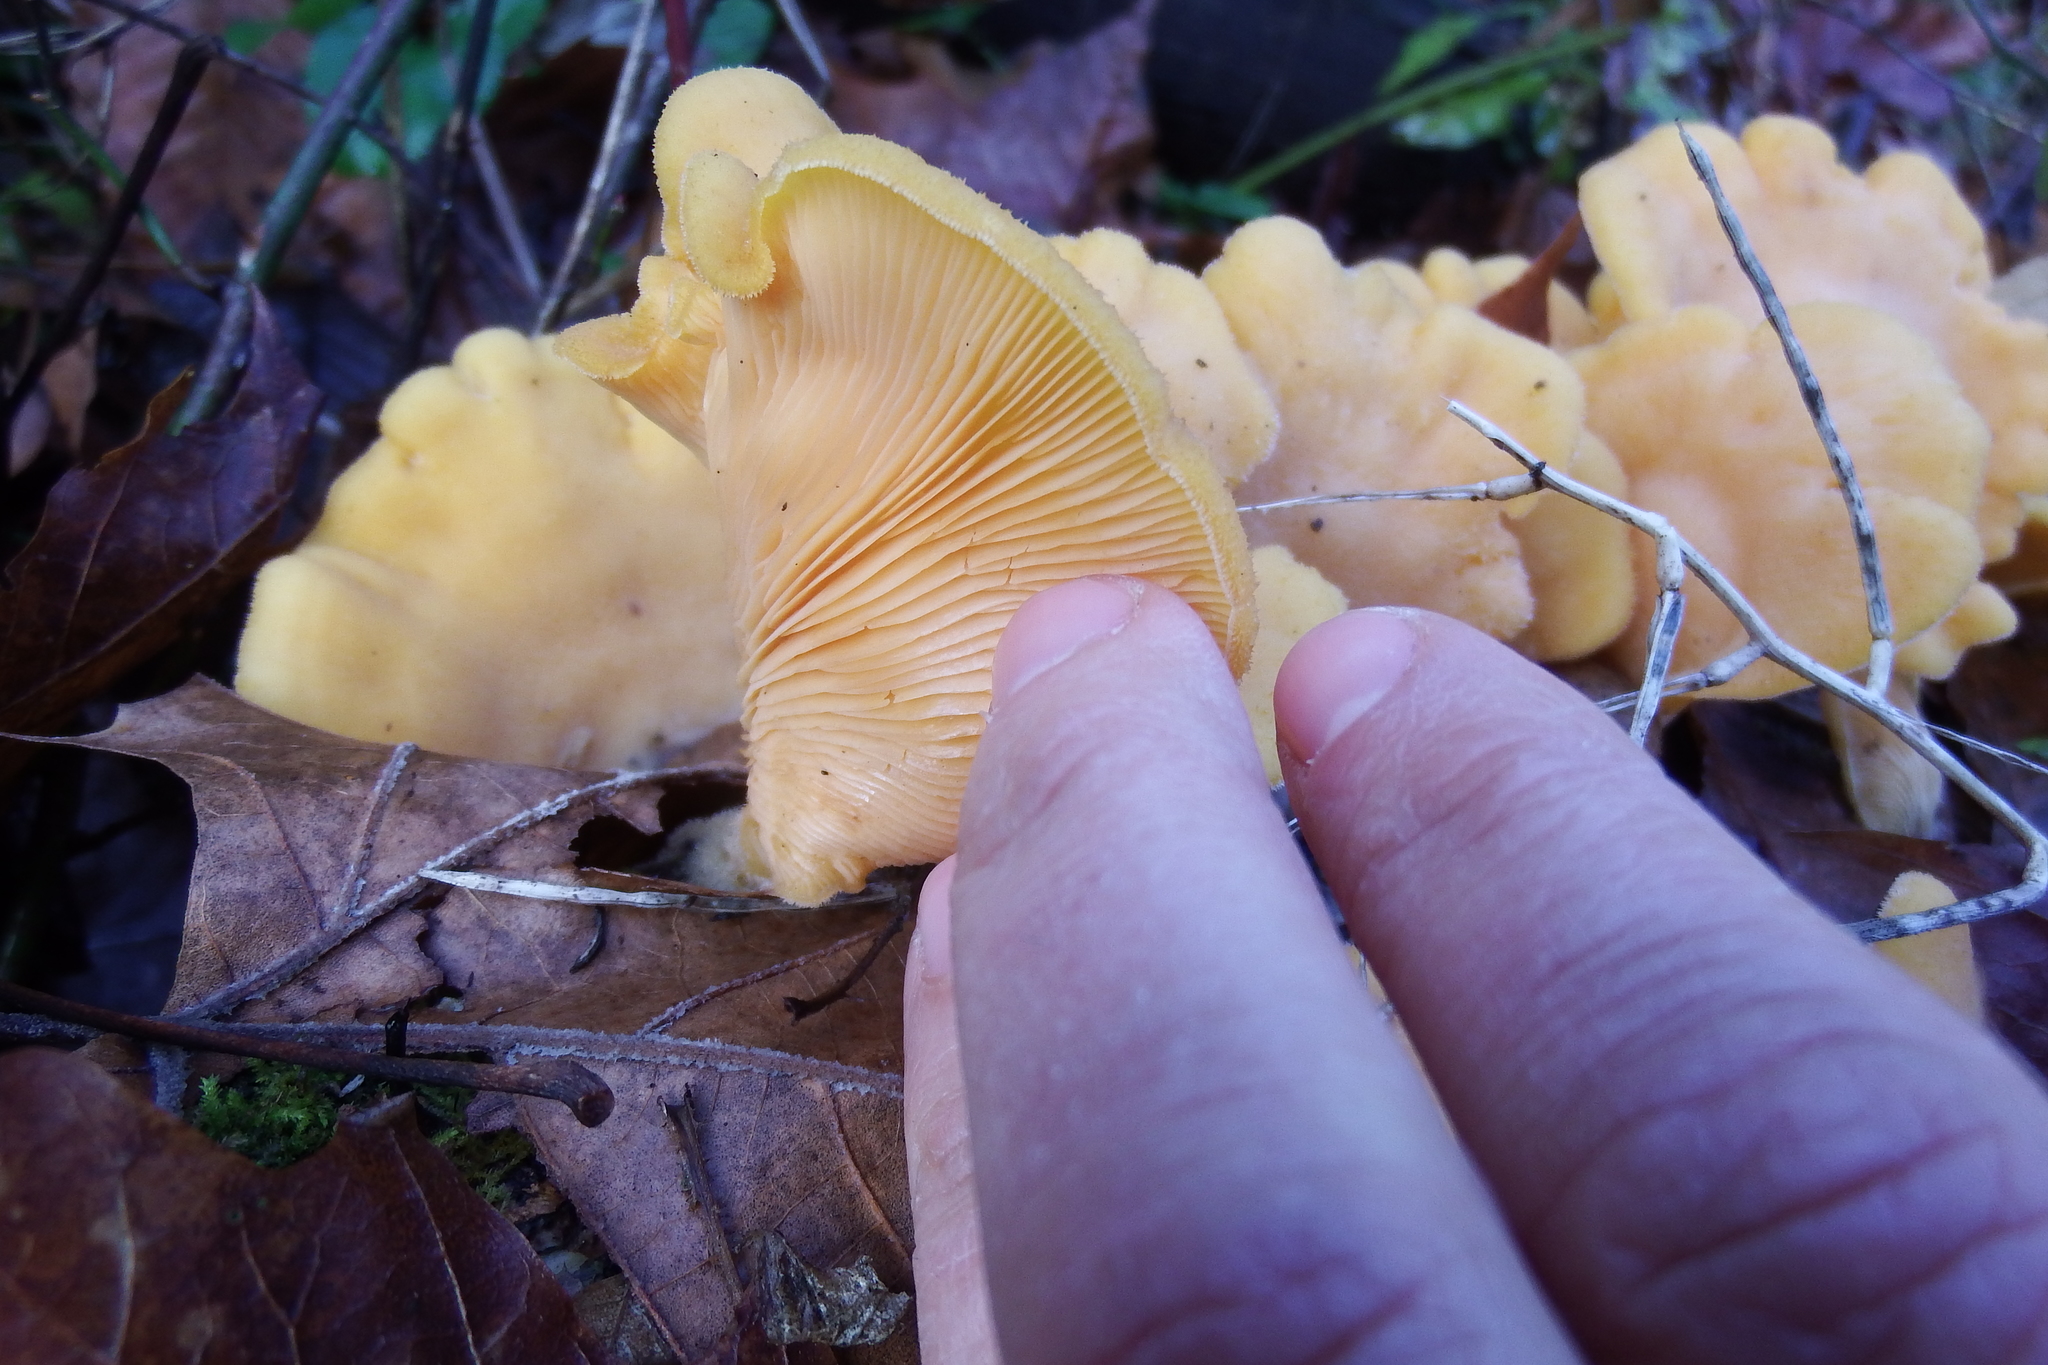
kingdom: Fungi
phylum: Basidiomycota
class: Agaricomycetes
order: Agaricales
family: Phyllotopsidaceae
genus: Phyllotopsis
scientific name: Phyllotopsis nidulans
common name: Orange mock oyster
